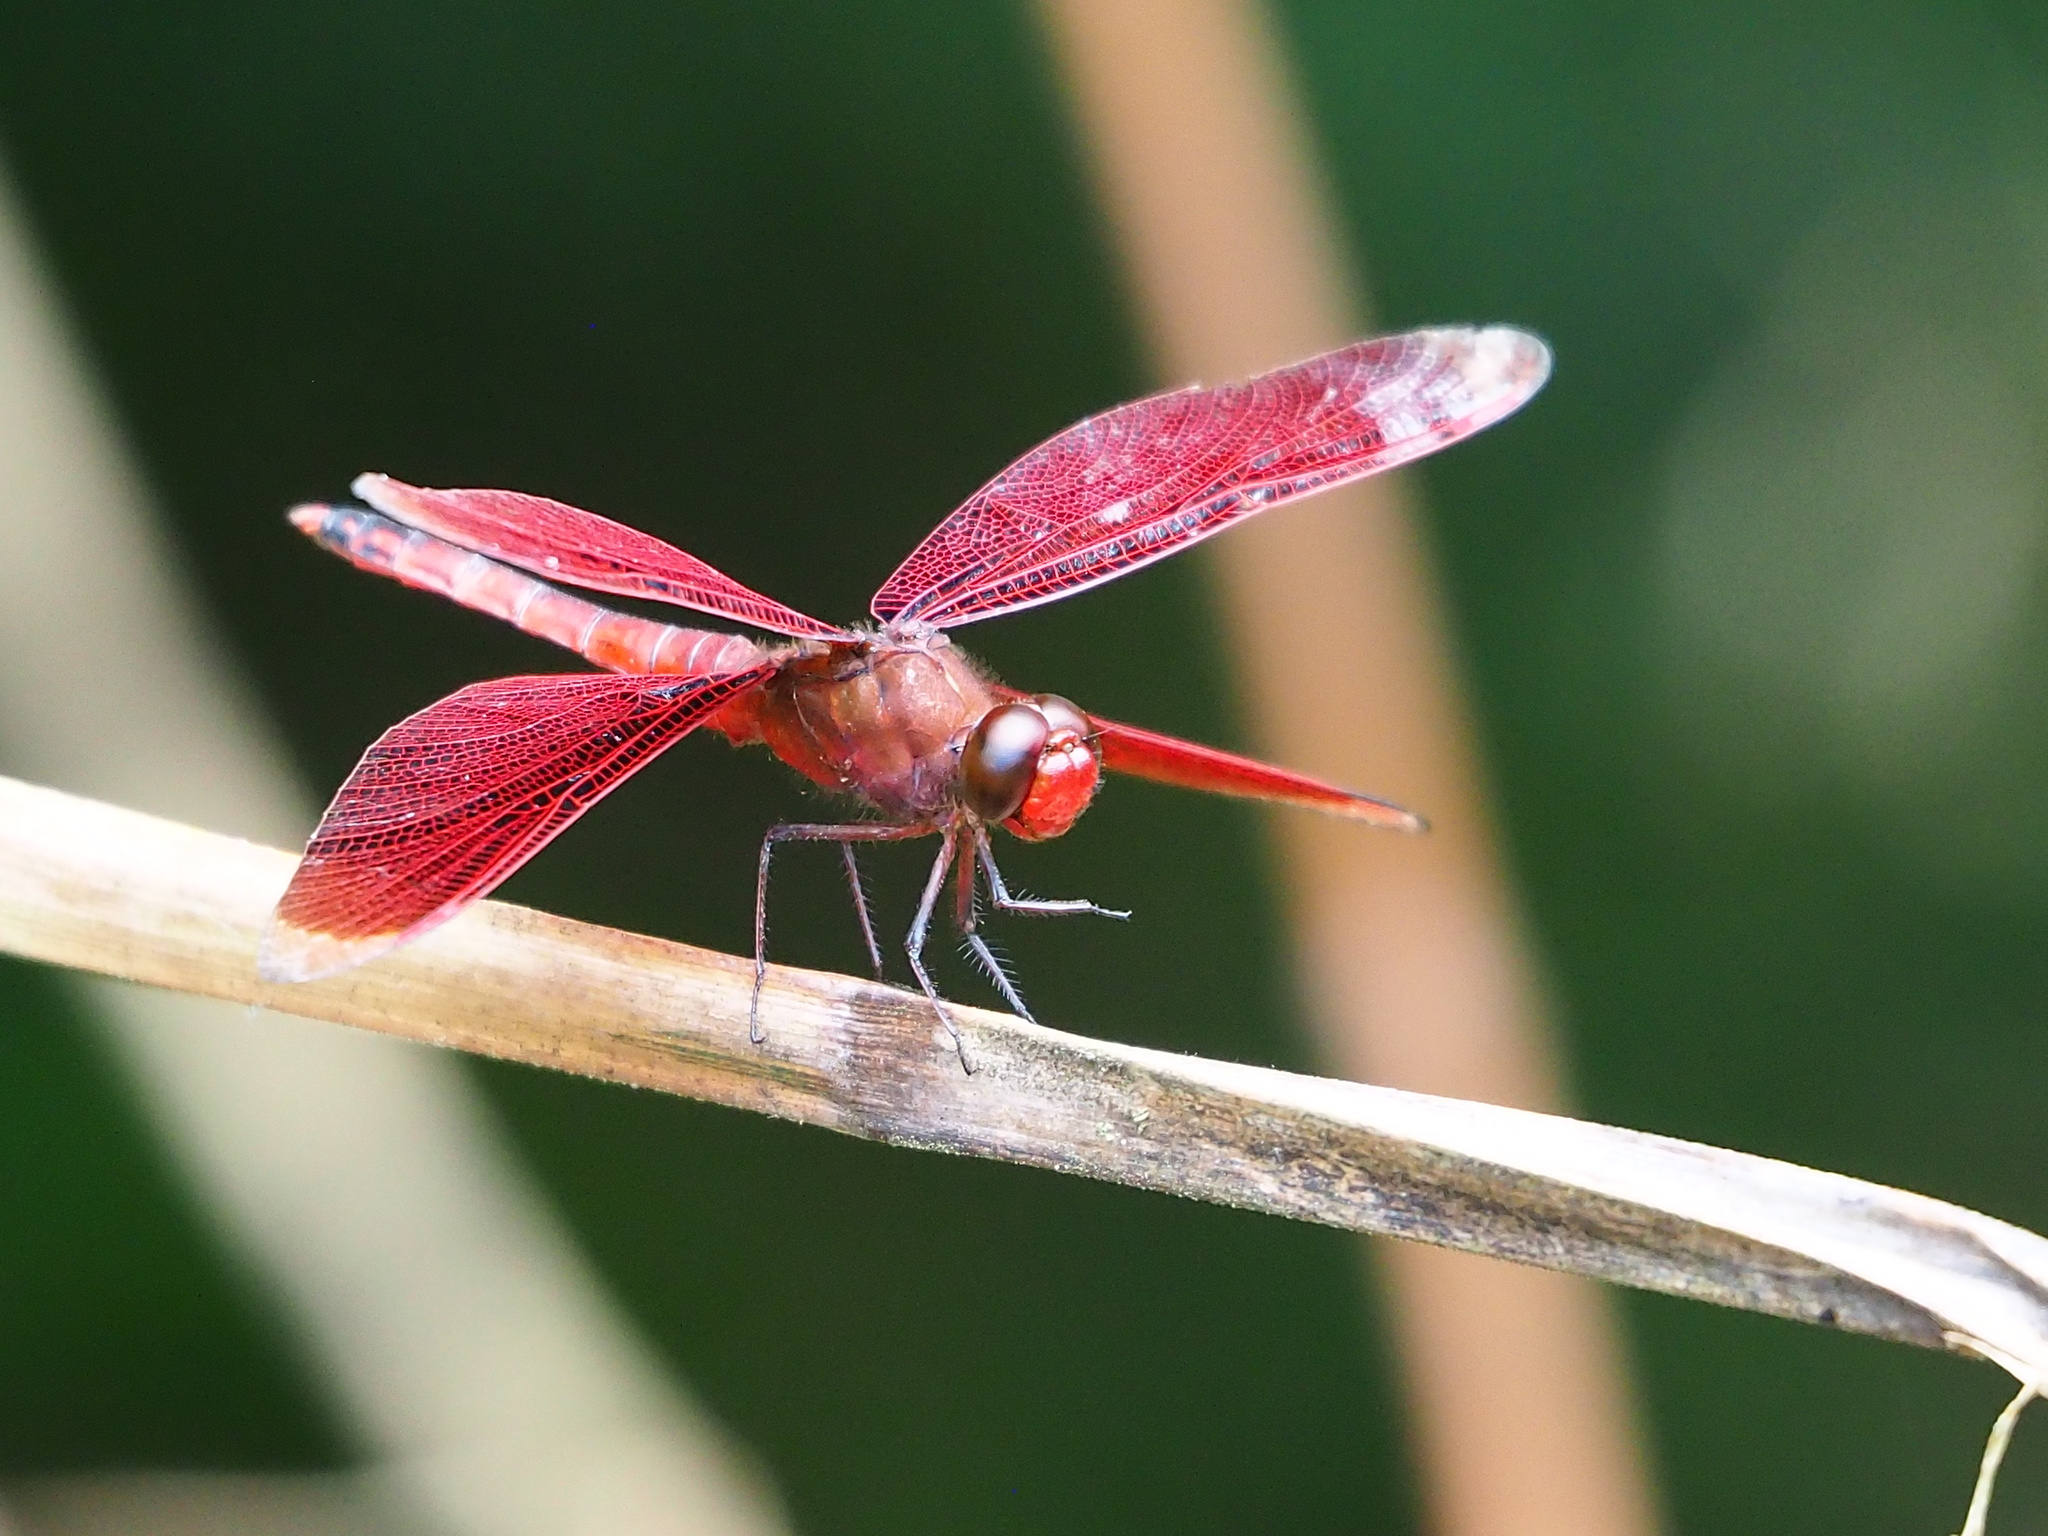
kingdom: Animalia
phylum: Arthropoda
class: Insecta
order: Odonata
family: Libellulidae
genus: Neurothemis
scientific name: Neurothemis taiwanensis
